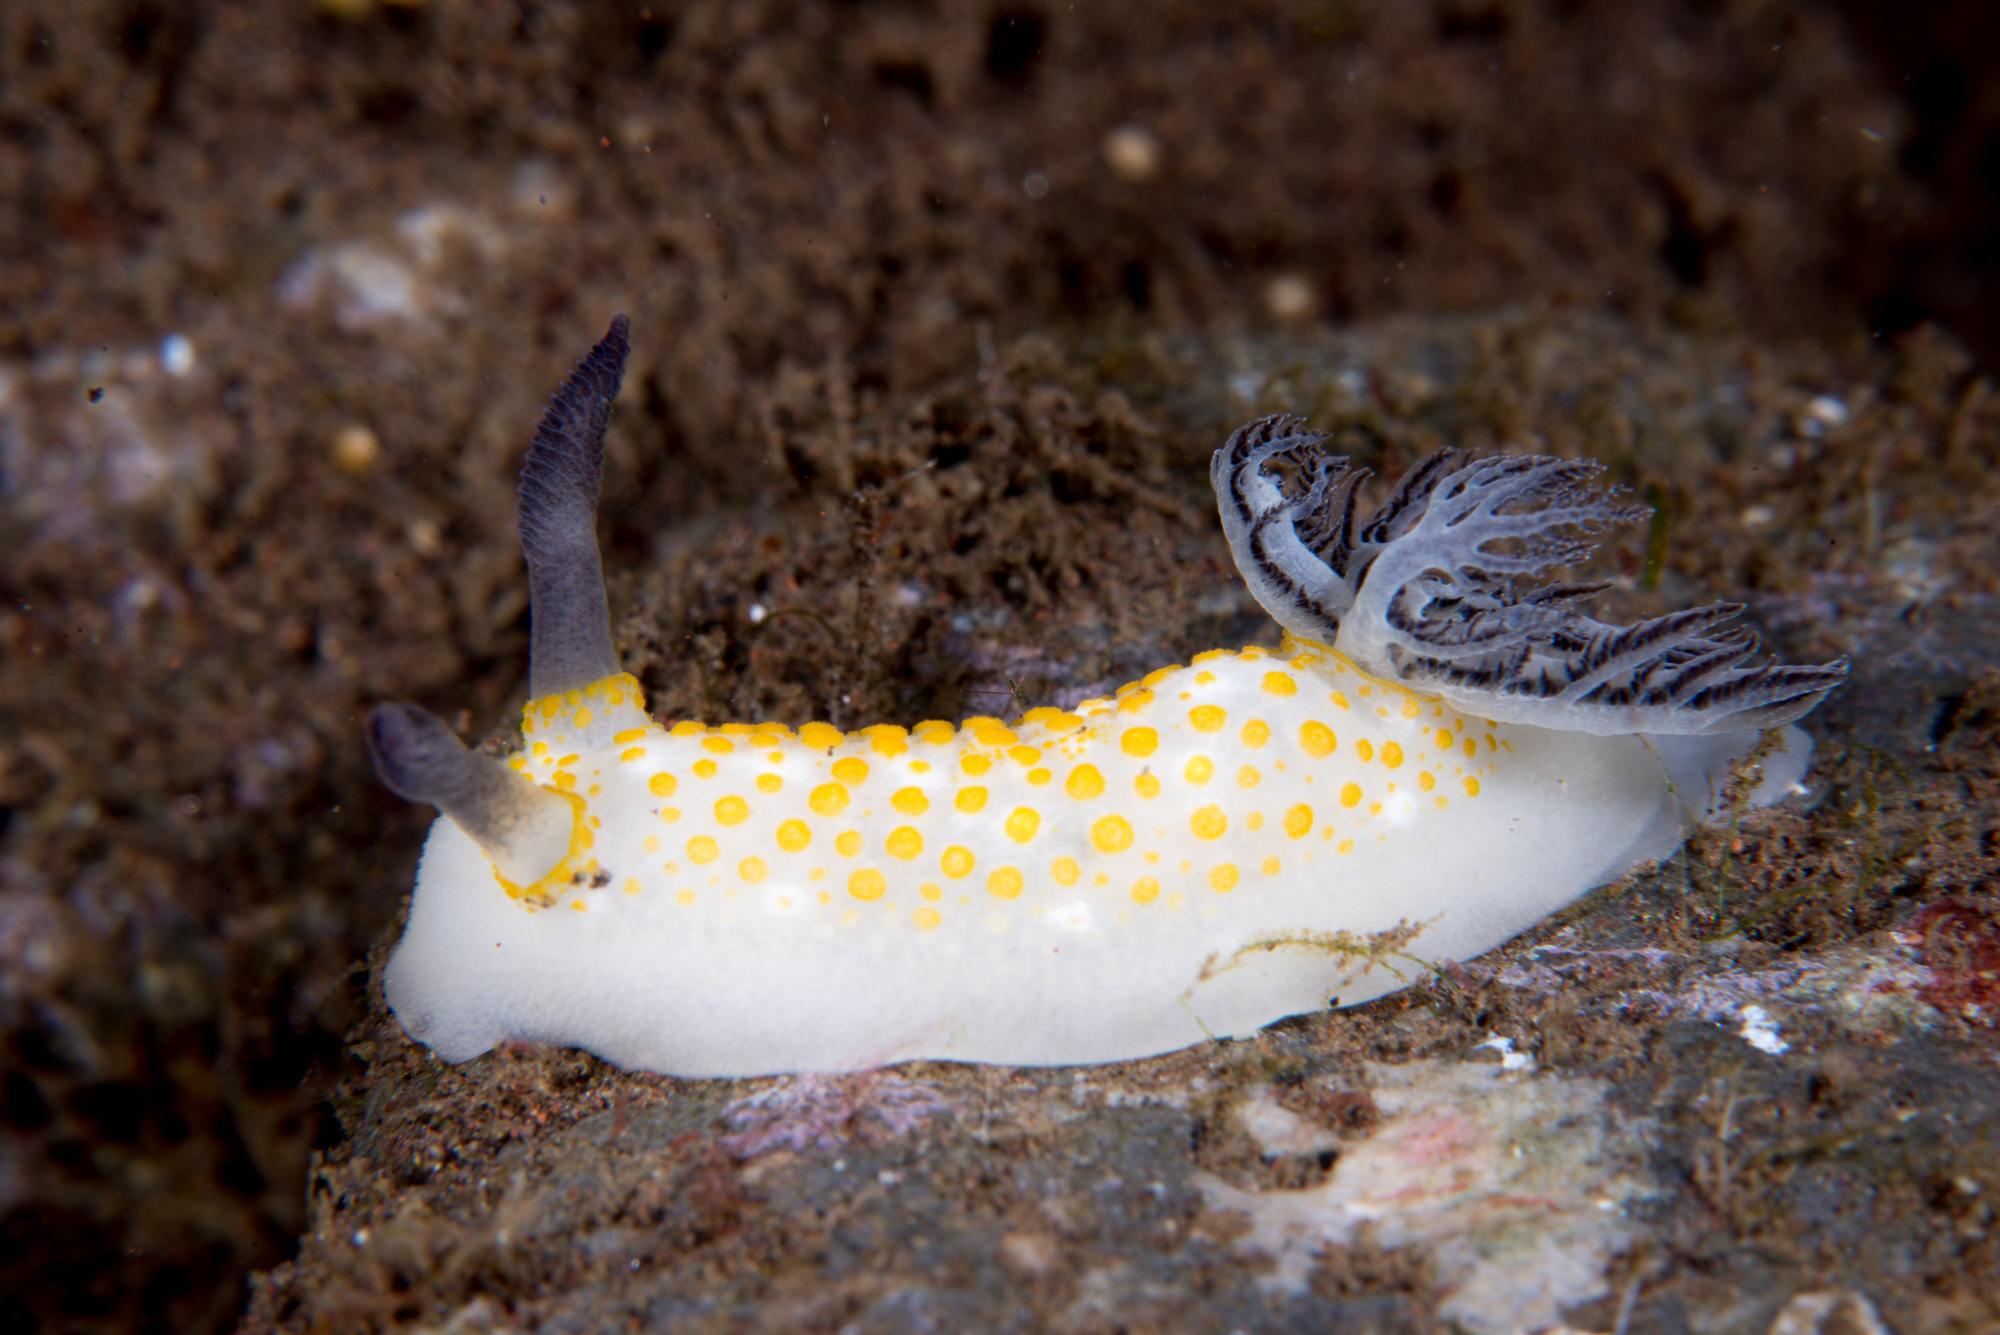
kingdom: Animalia
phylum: Mollusca
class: Gastropoda
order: Nudibranchia
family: Discodorididae
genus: Taringa
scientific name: Taringa halgerda
